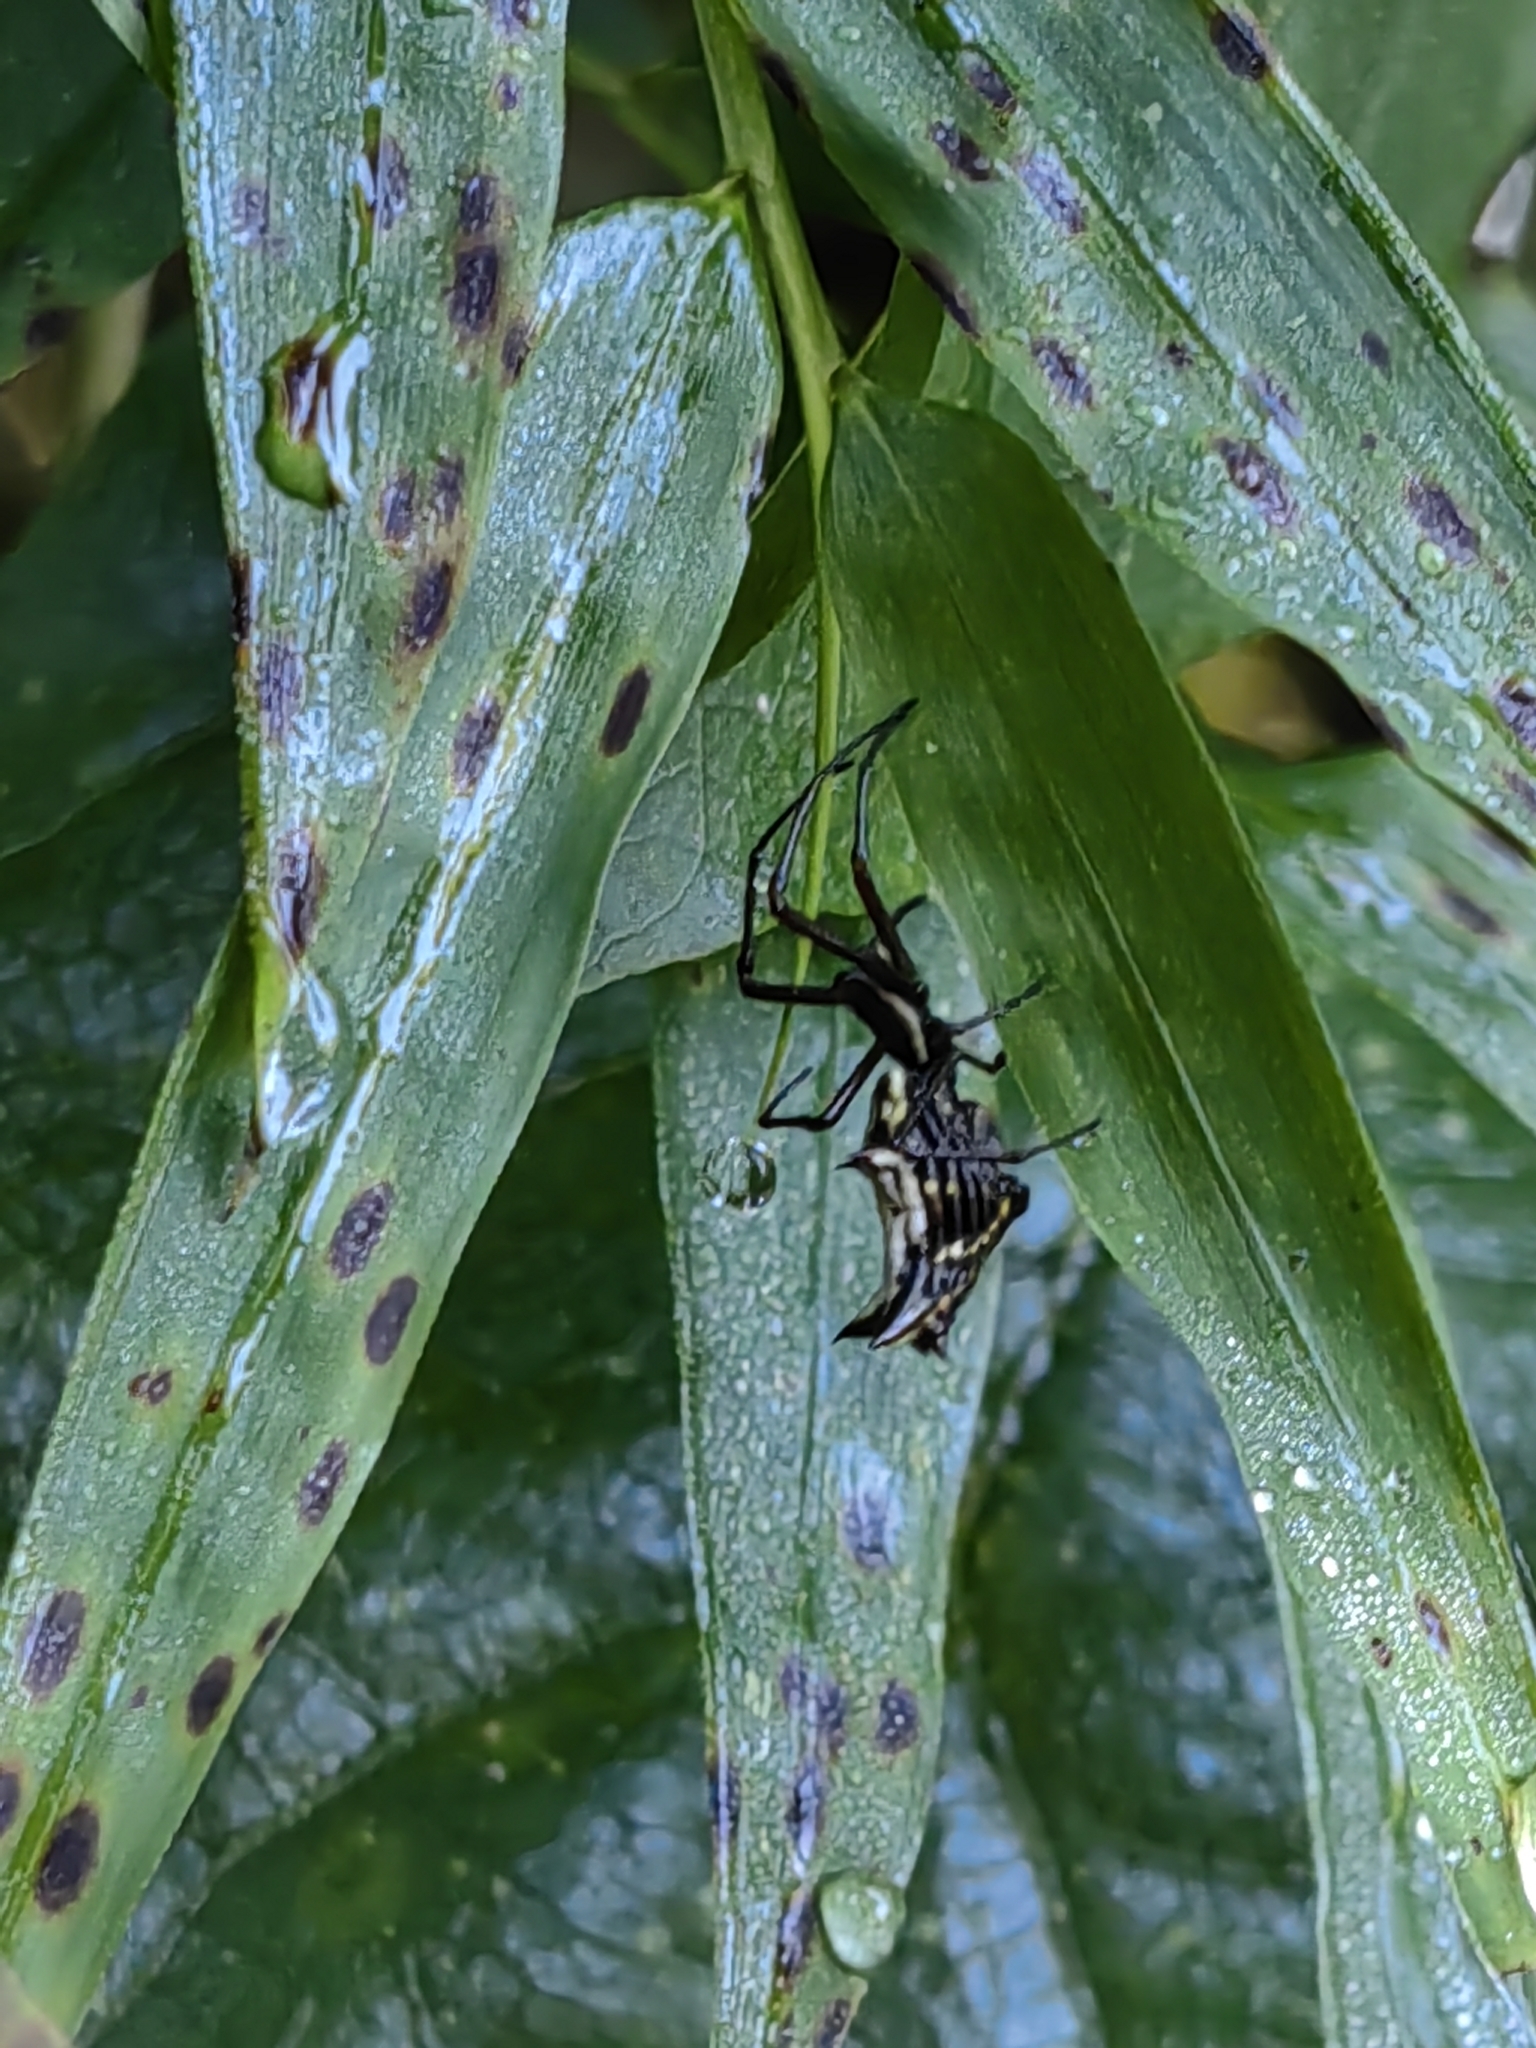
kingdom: Animalia
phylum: Arthropoda
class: Arachnida
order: Araneae
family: Araneidae
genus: Micrathena
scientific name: Micrathena nigrichelis
